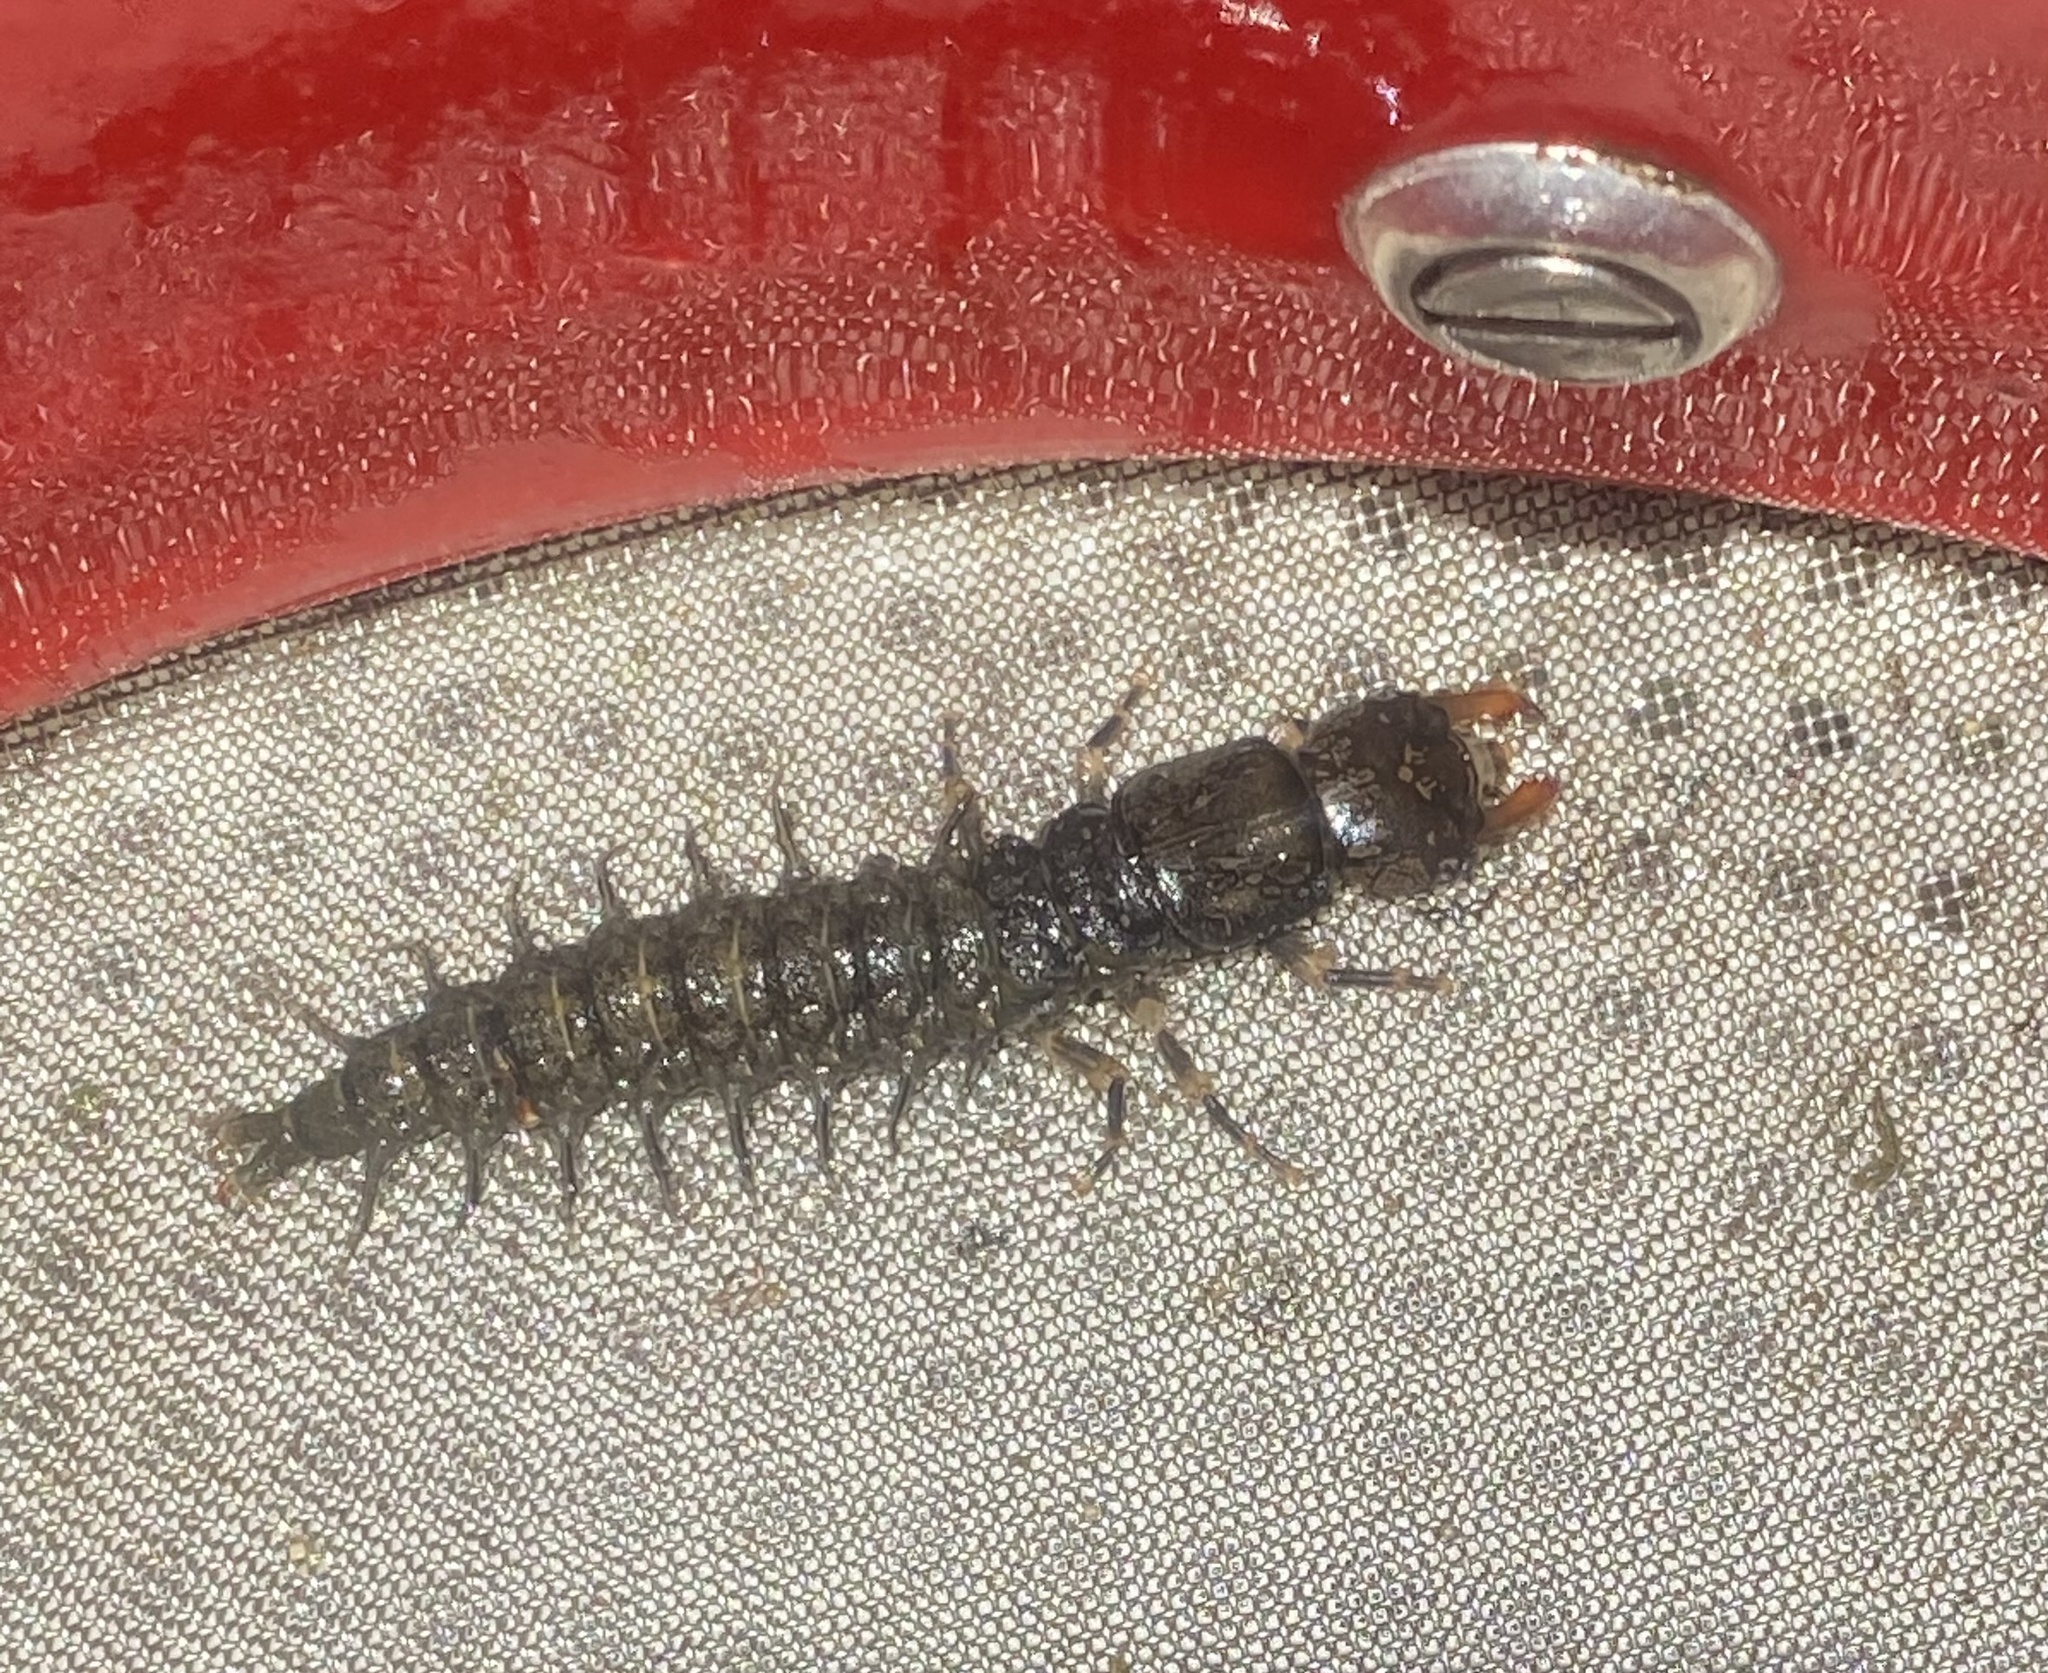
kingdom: Animalia
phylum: Arthropoda
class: Insecta
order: Megaloptera
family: Corydalidae
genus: Corydalus
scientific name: Corydalus cornutus
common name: Dobsonfly
